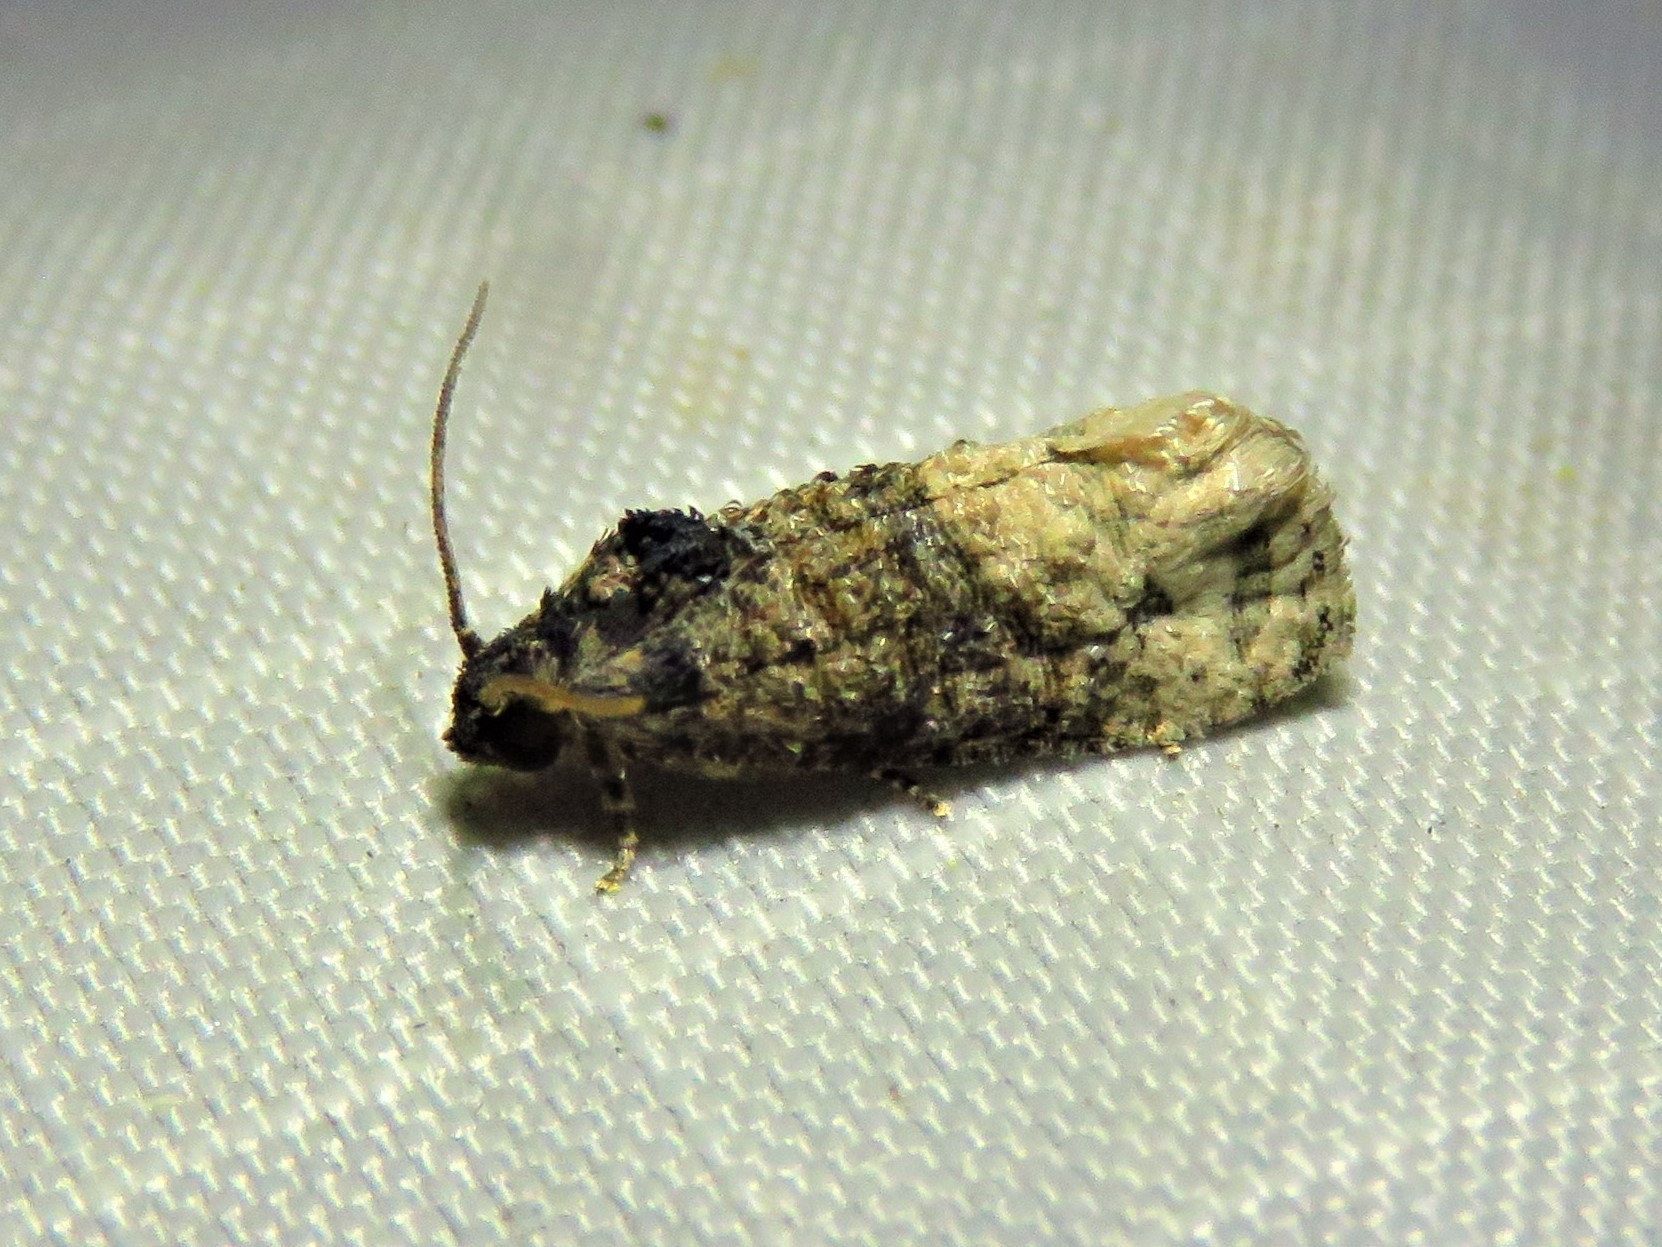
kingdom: Animalia
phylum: Arthropoda
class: Insecta
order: Lepidoptera
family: Tortricidae
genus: Ecdytolopha
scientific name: Ecdytolopha mana
